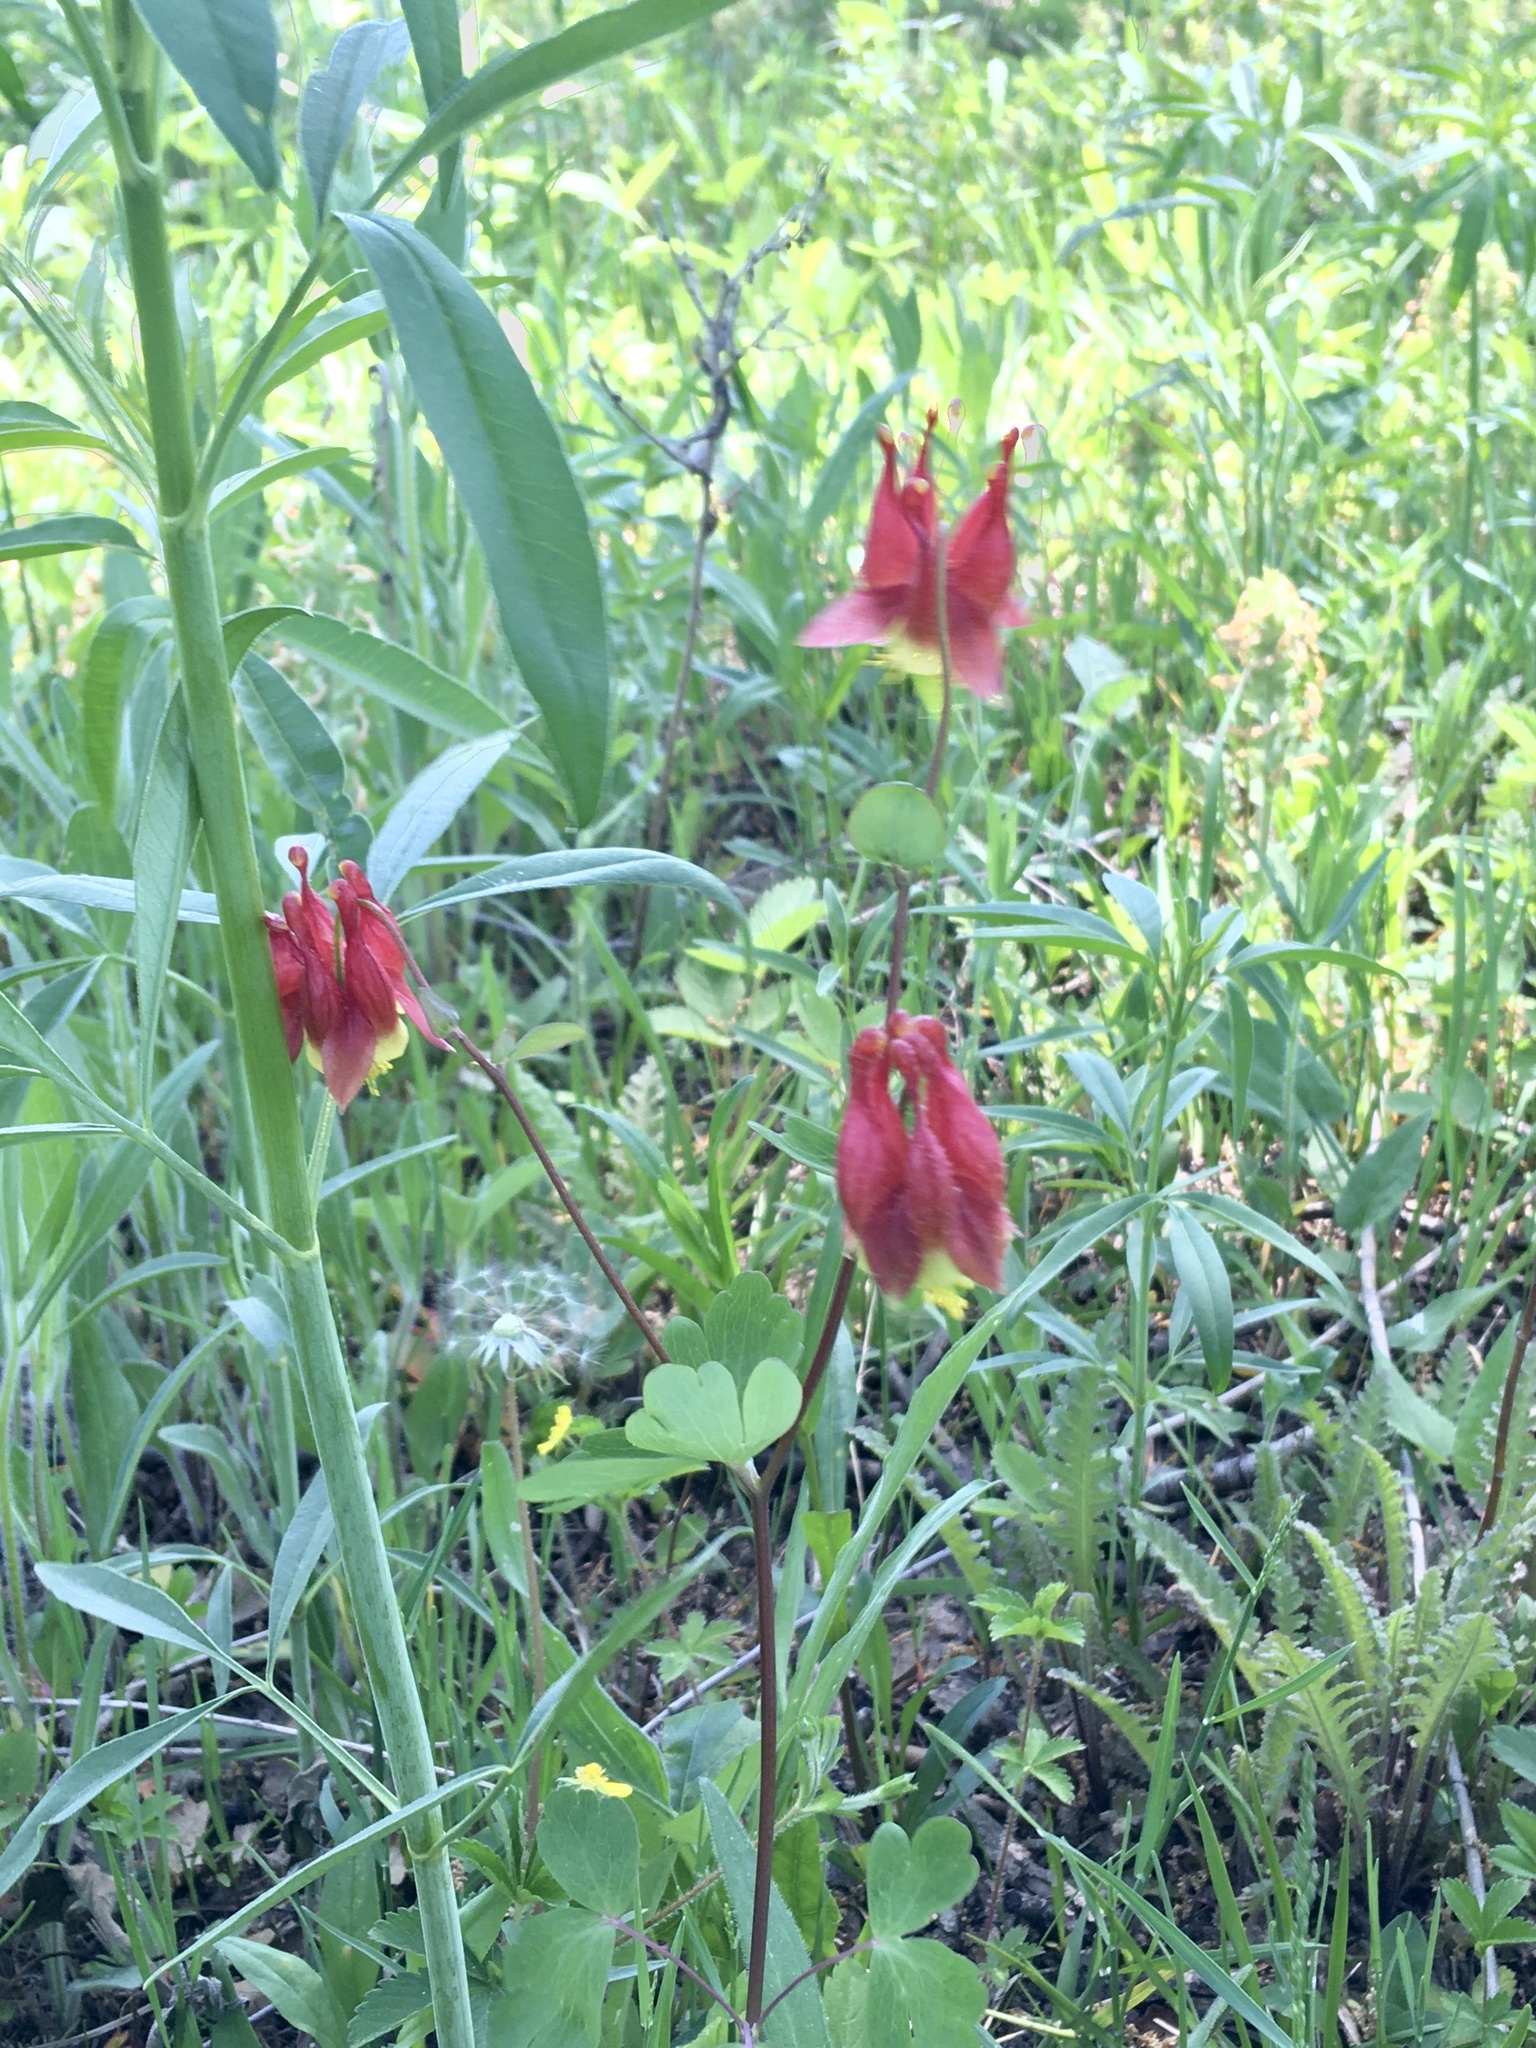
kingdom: Plantae
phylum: Tracheophyta
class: Magnoliopsida
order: Ranunculales
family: Ranunculaceae
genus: Aquilegia
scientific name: Aquilegia canadensis
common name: American columbine
